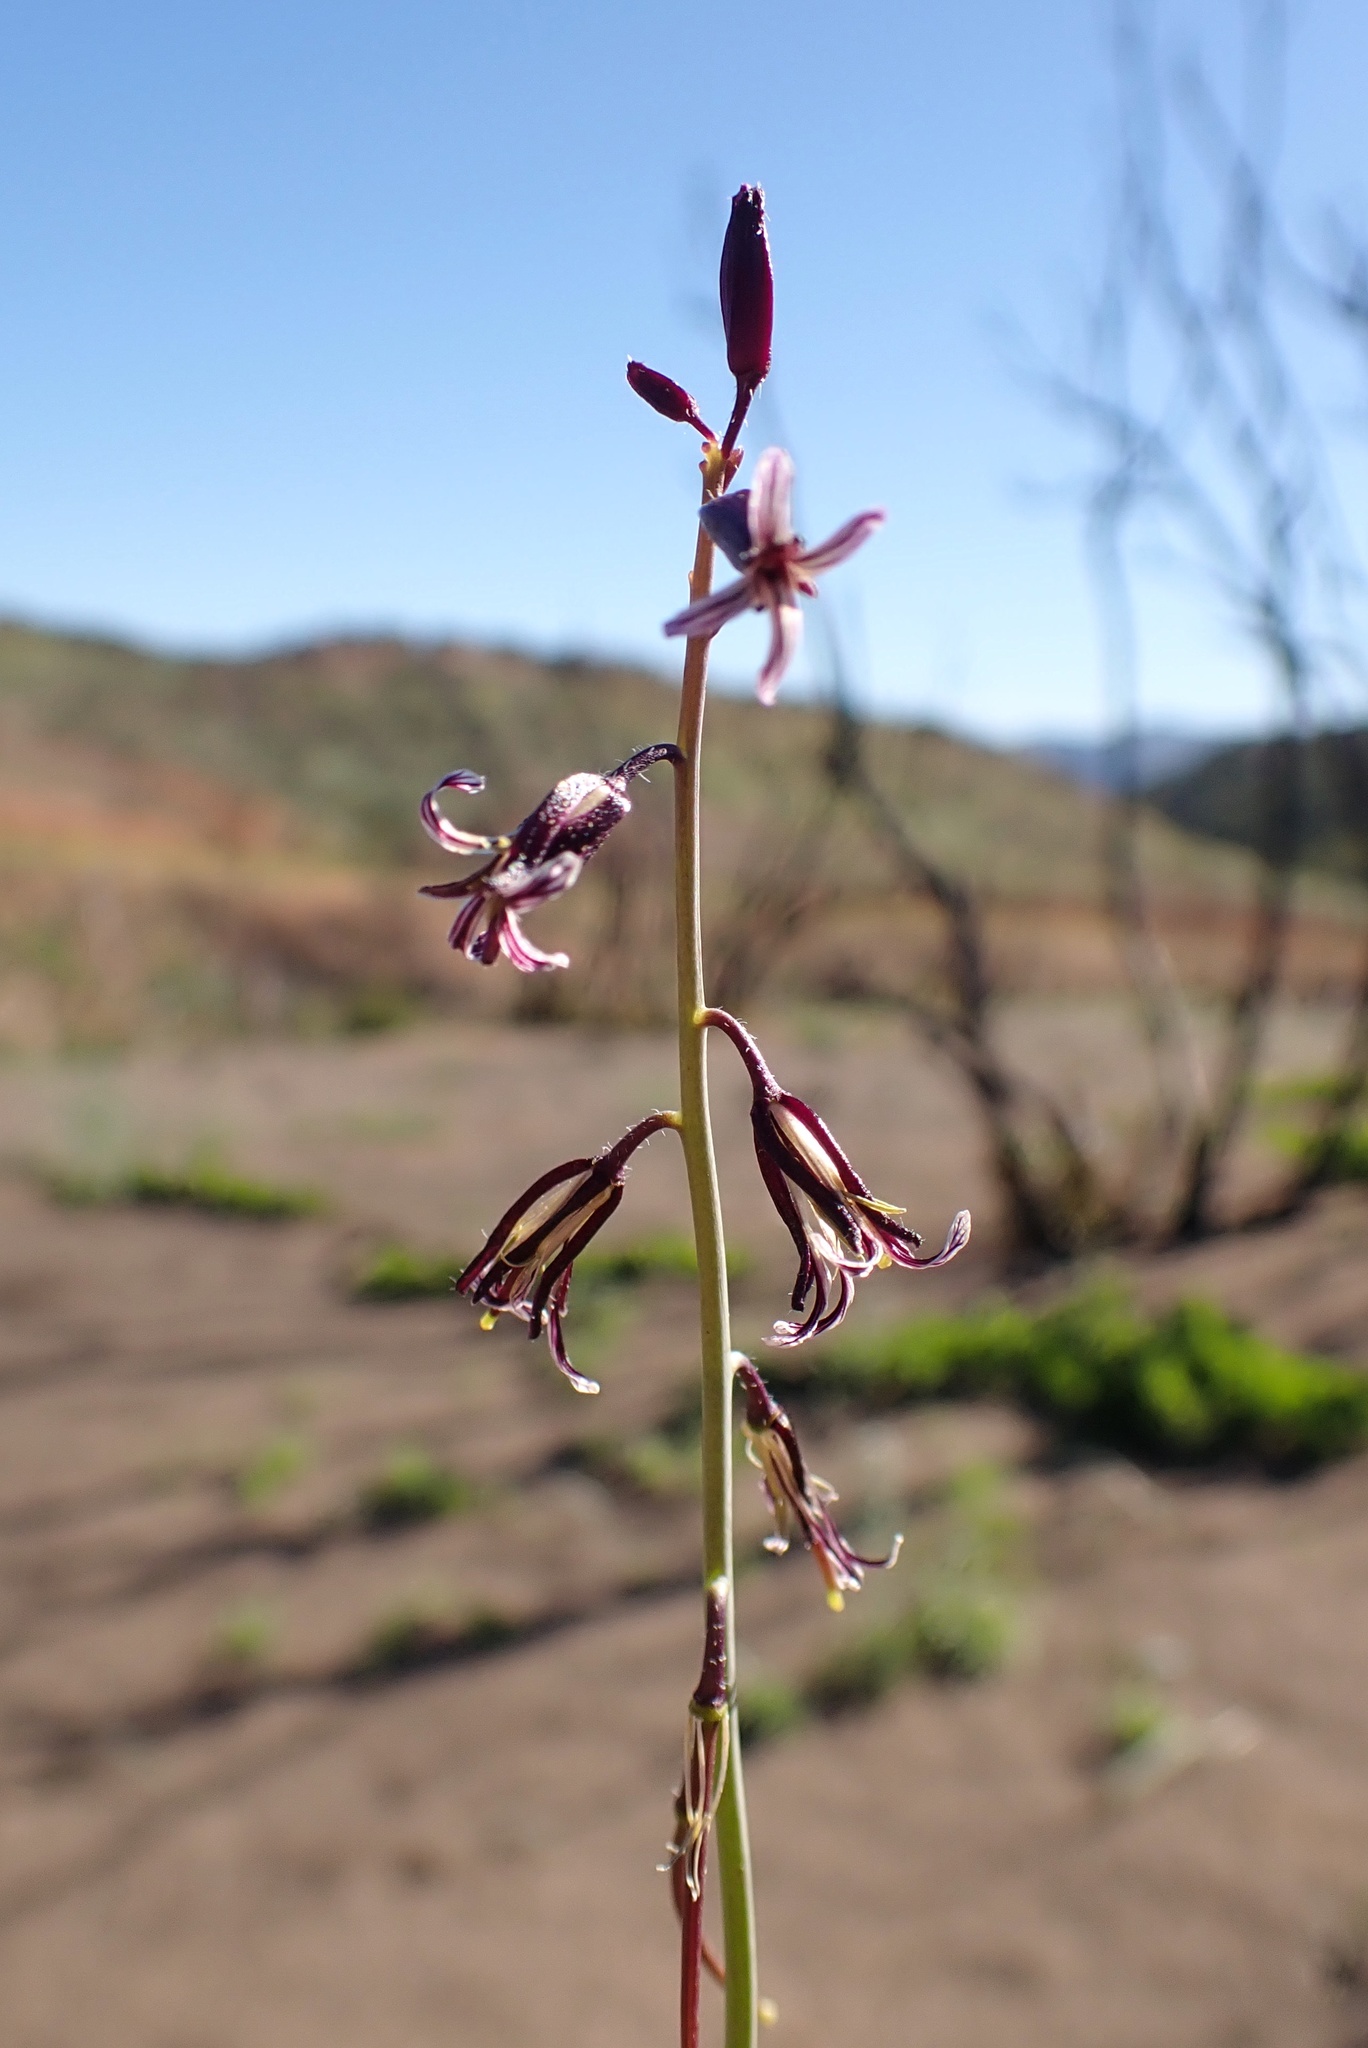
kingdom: Plantae
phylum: Tracheophyta
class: Magnoliopsida
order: Brassicales
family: Brassicaceae
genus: Streptanthus
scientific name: Streptanthus heterophyllus
